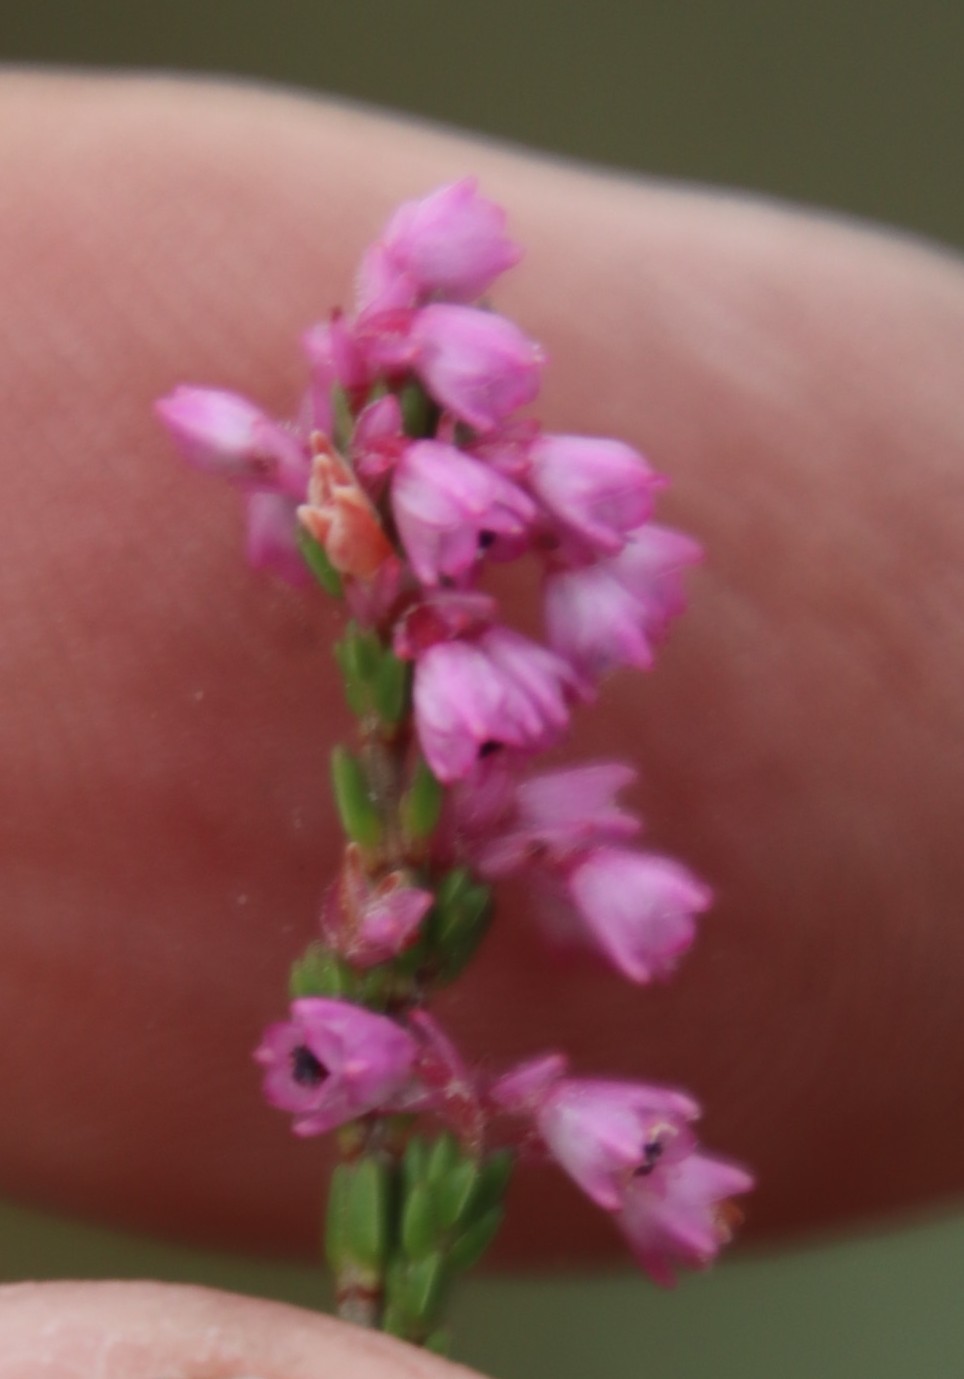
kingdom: Plantae
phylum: Tracheophyta
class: Magnoliopsida
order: Ericales
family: Ericaceae
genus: Erica
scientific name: Erica gnaphaloides
